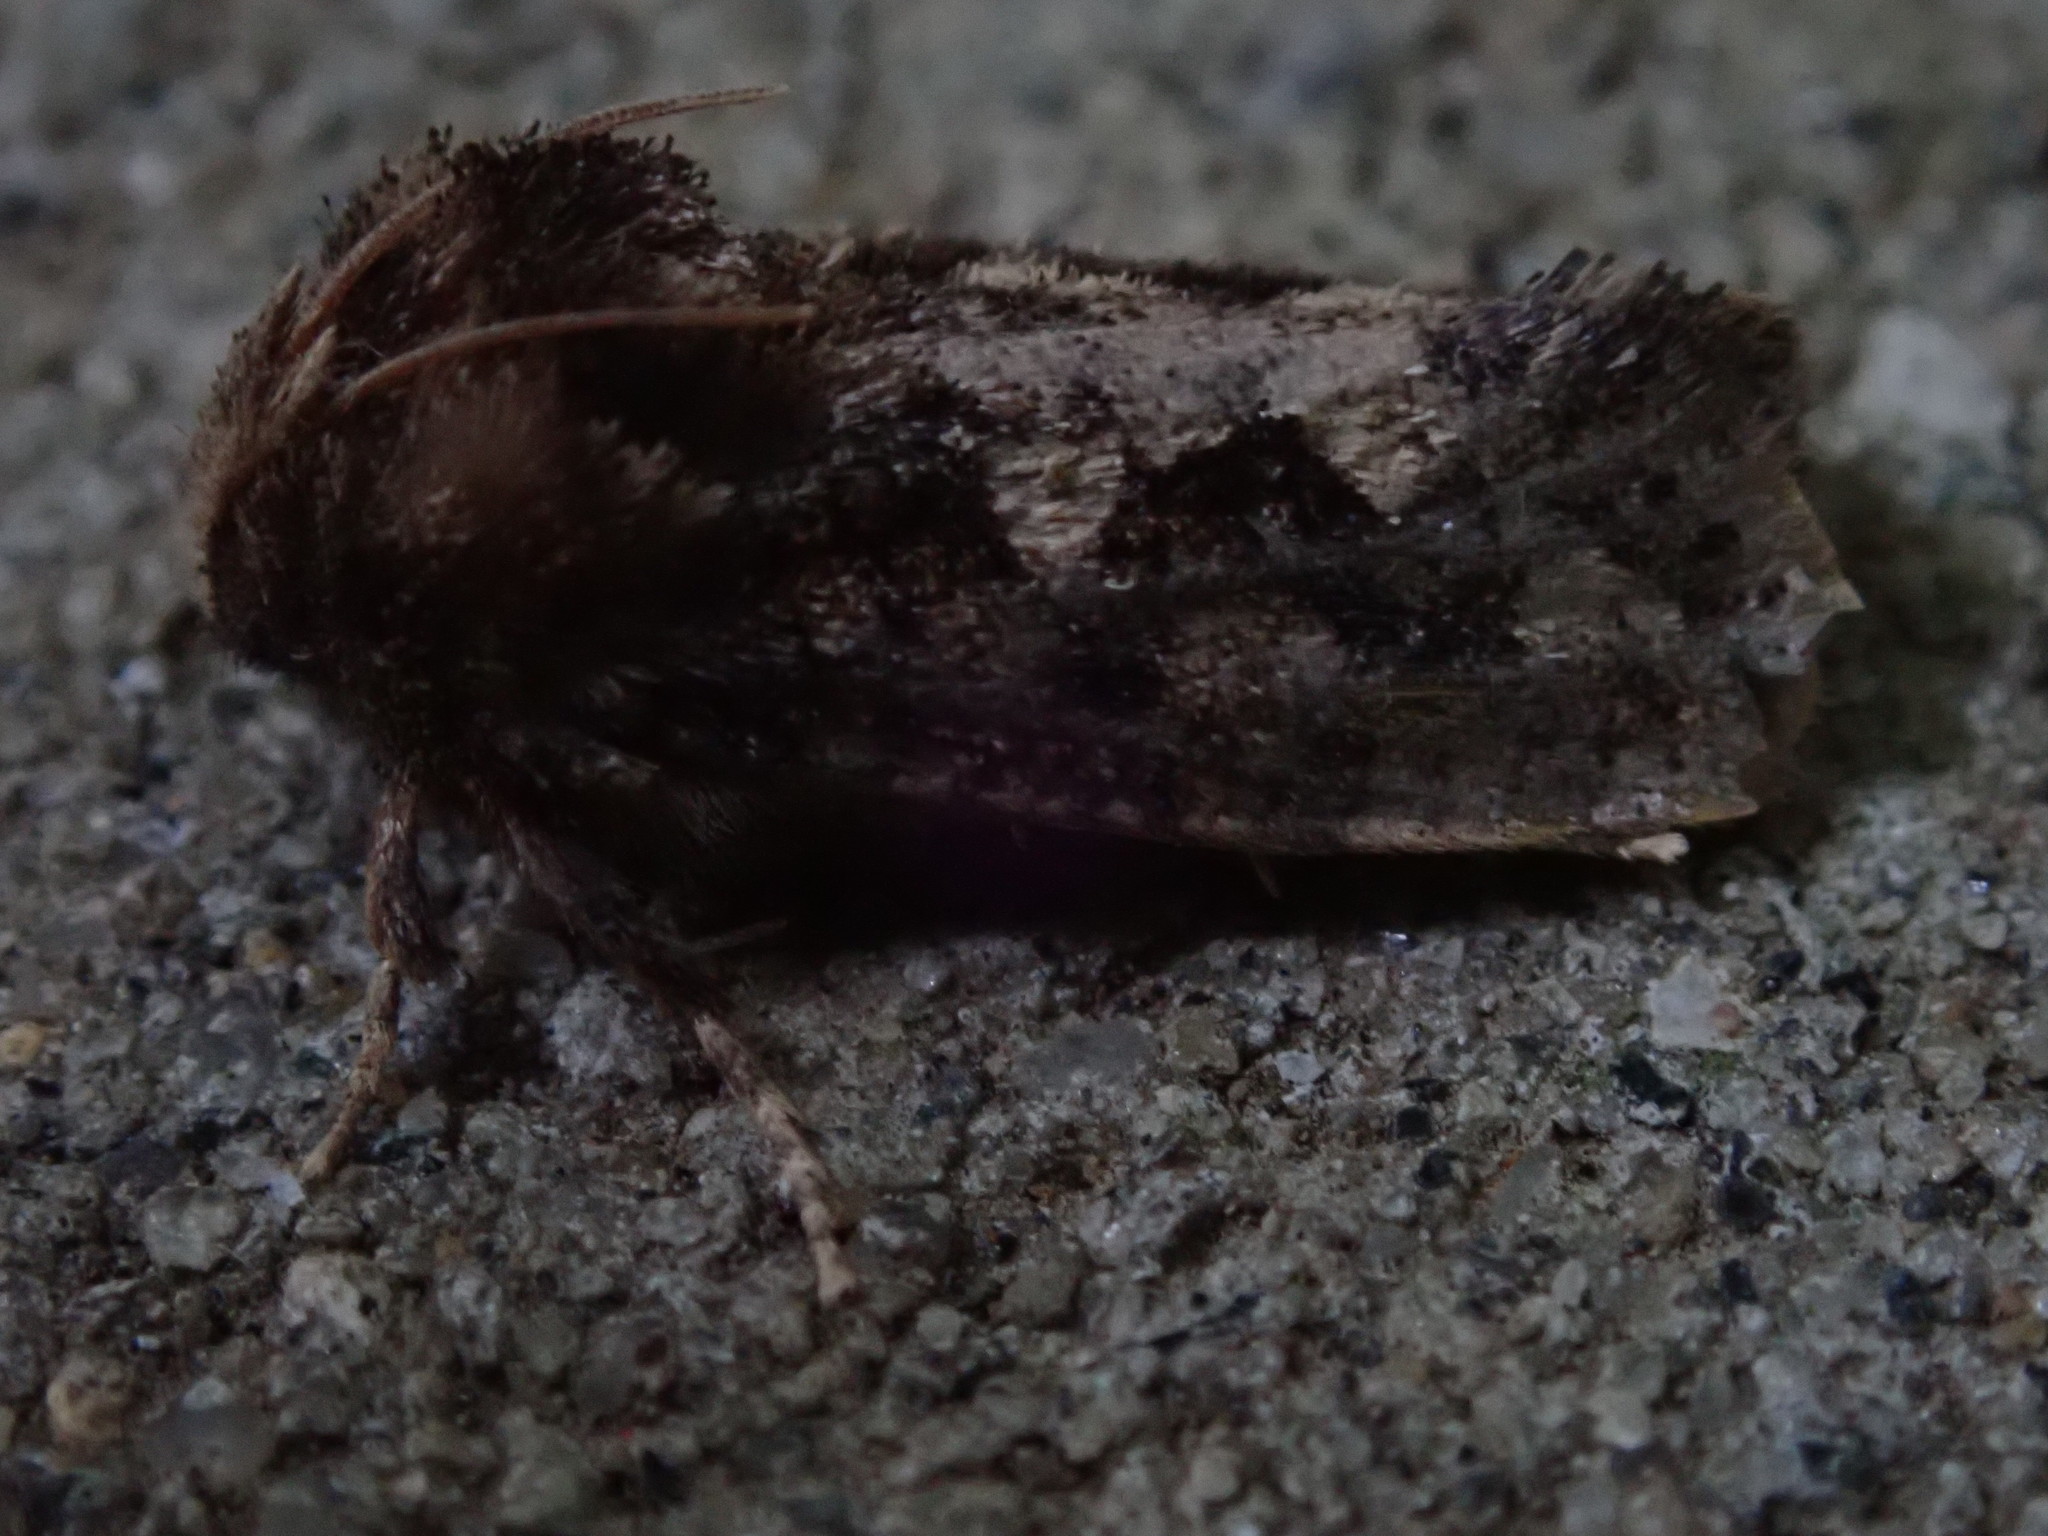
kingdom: Animalia
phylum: Arthropoda
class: Insecta
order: Lepidoptera
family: Tineidae
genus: Acrolophus
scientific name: Acrolophus arcanella
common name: Arcane grass tubeworm moth
